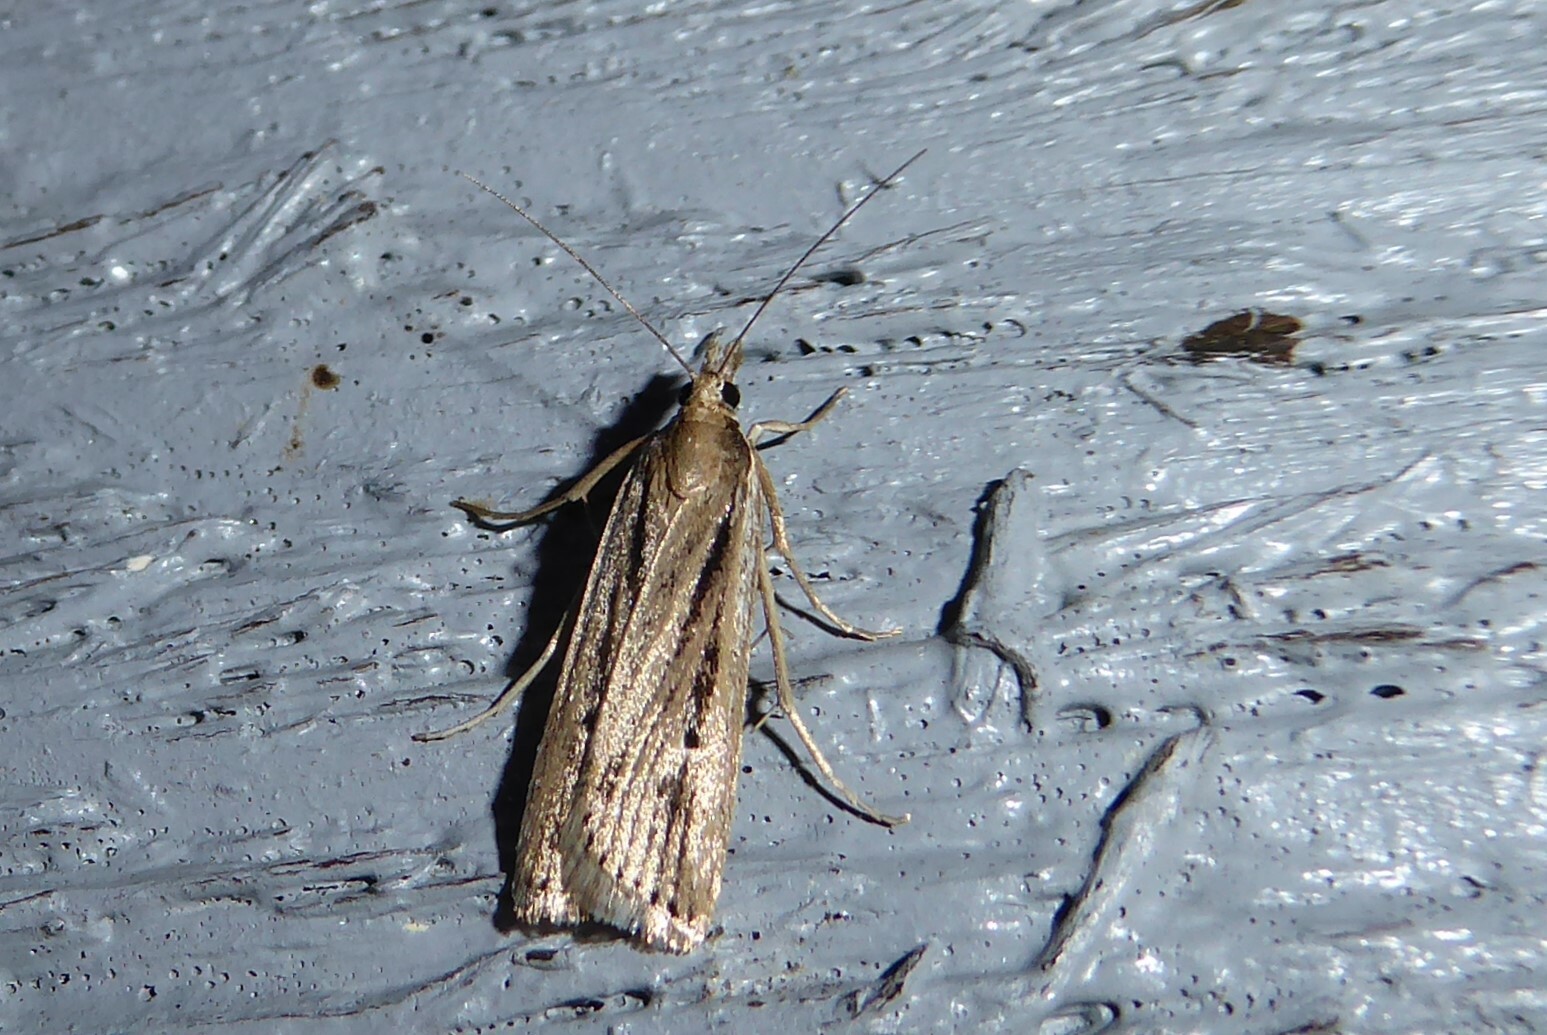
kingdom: Animalia
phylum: Arthropoda
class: Insecta
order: Lepidoptera
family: Crambidae
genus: Eudonia
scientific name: Eudonia sabulosella
